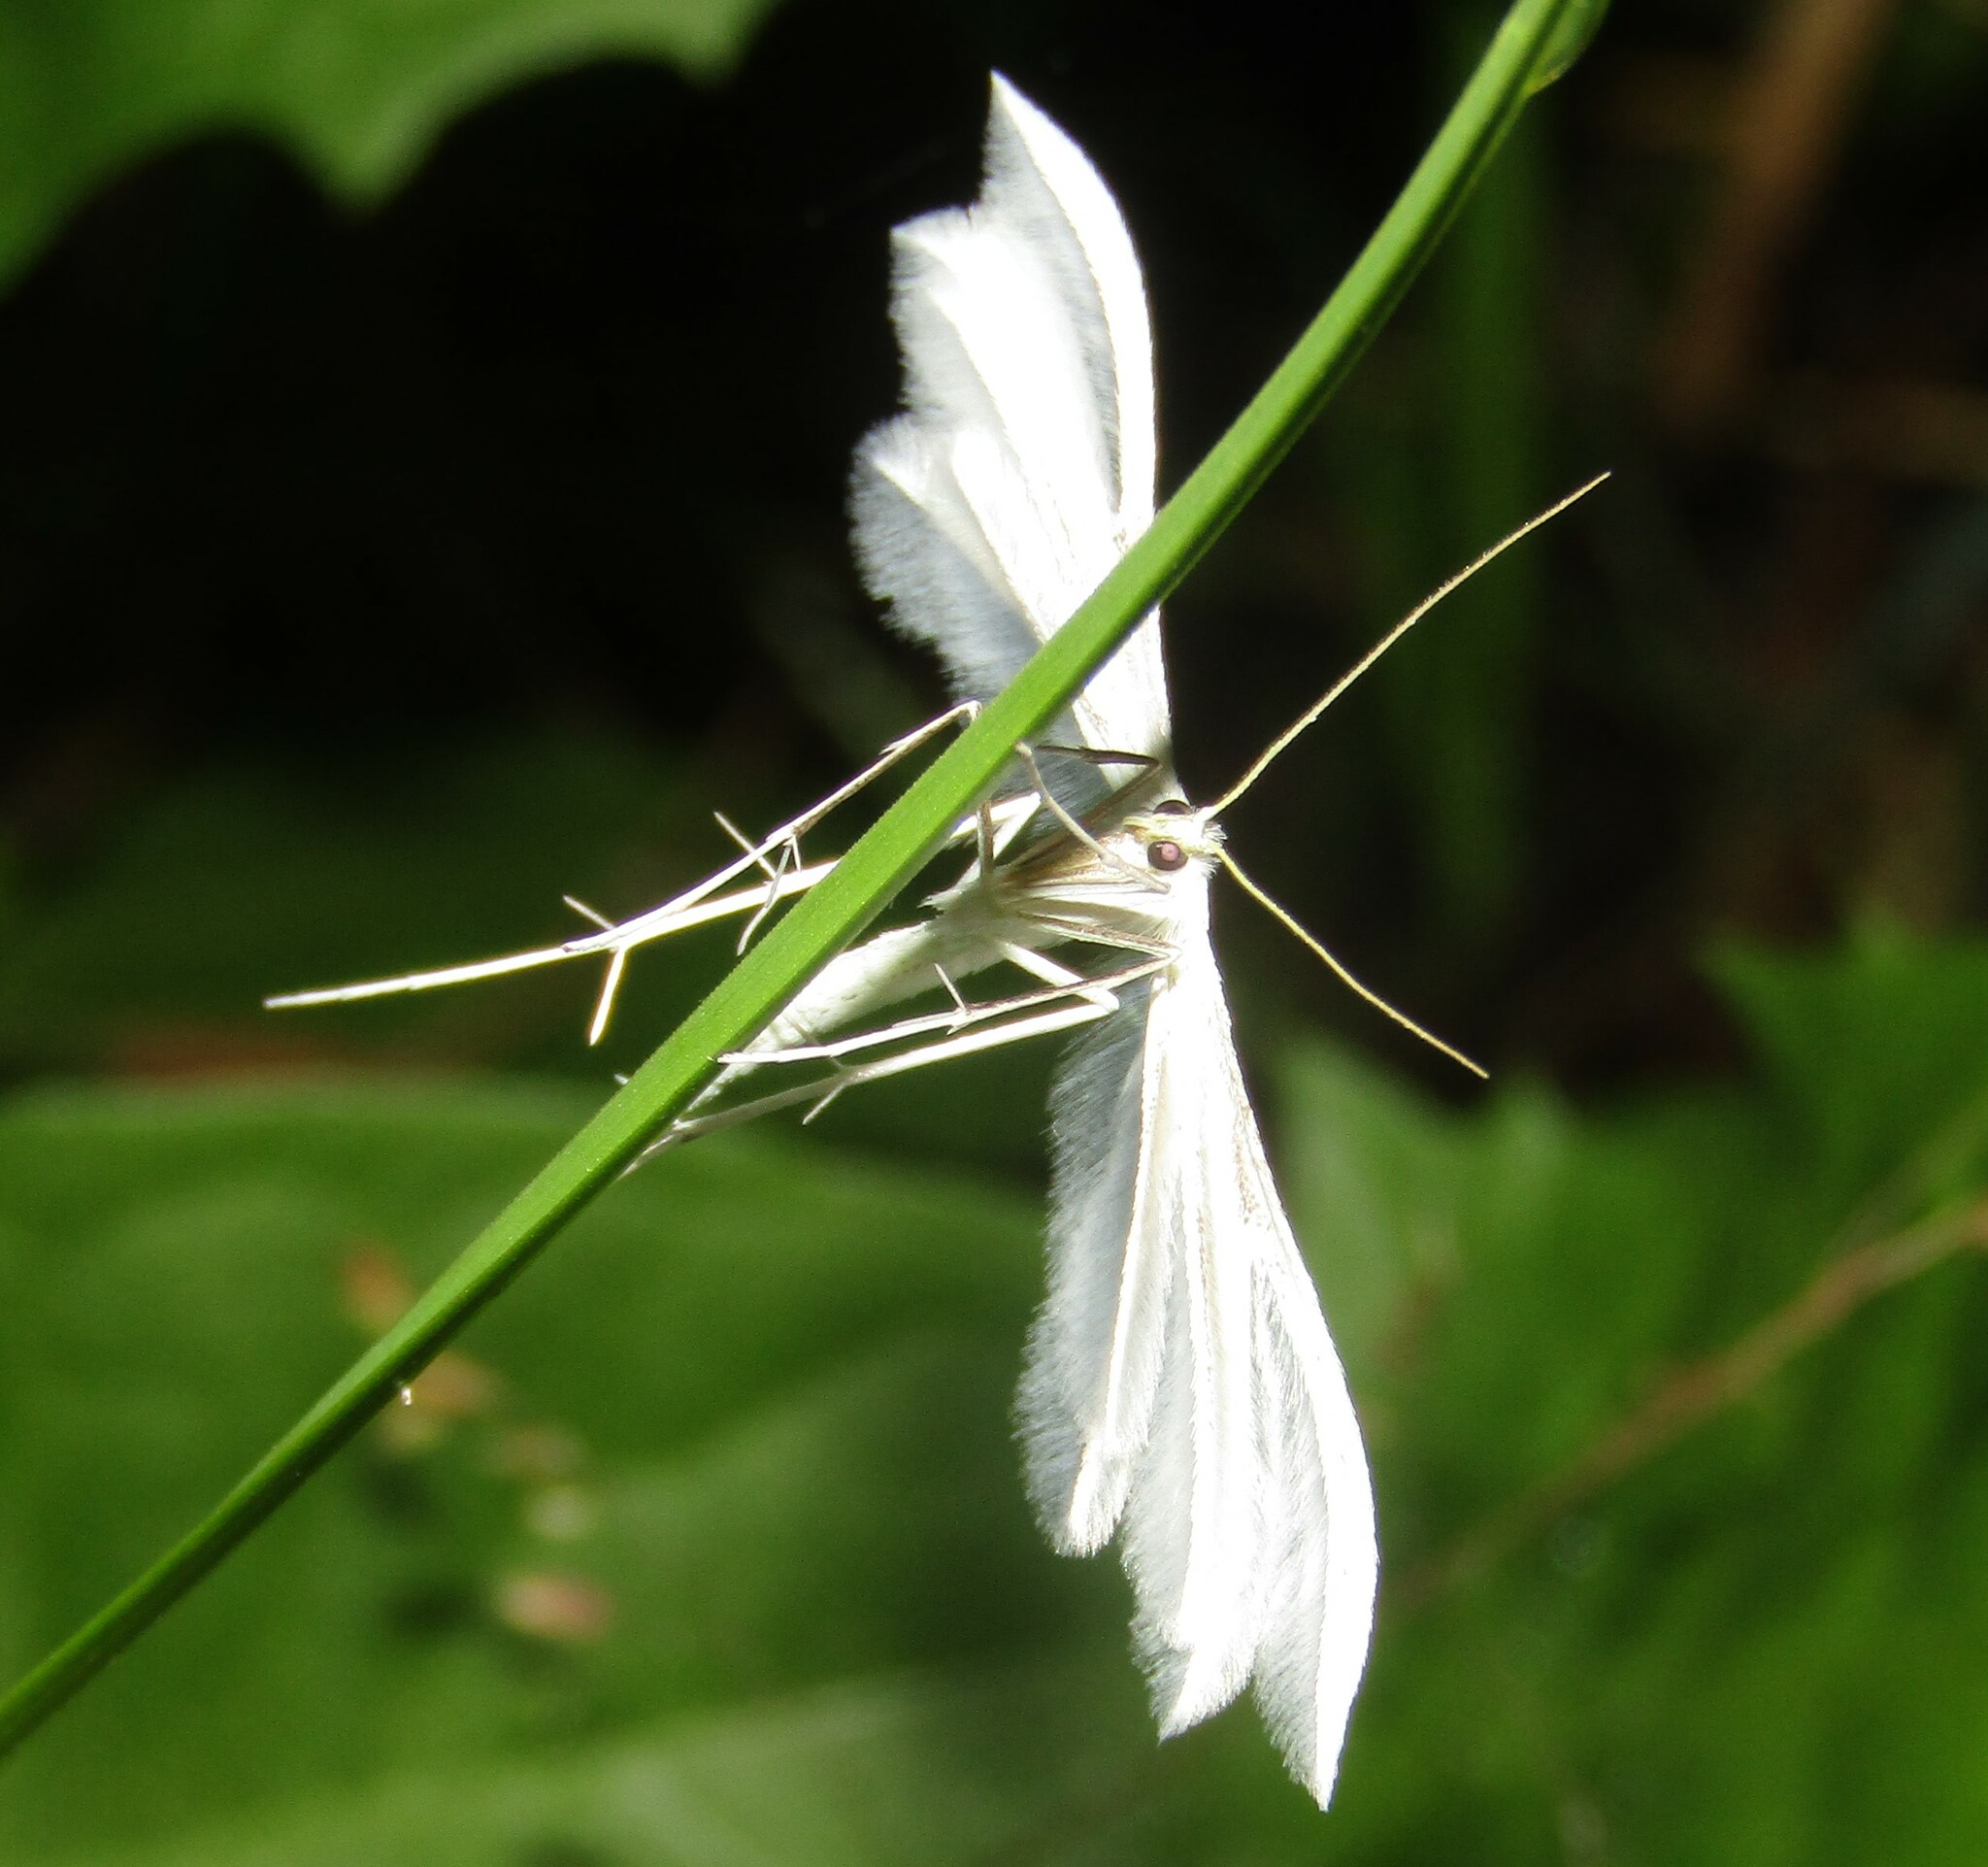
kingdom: Animalia
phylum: Arthropoda
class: Insecta
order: Lepidoptera
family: Pterophoridae
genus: Pterophorus
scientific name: Pterophorus pentadactyla
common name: White plume moth
